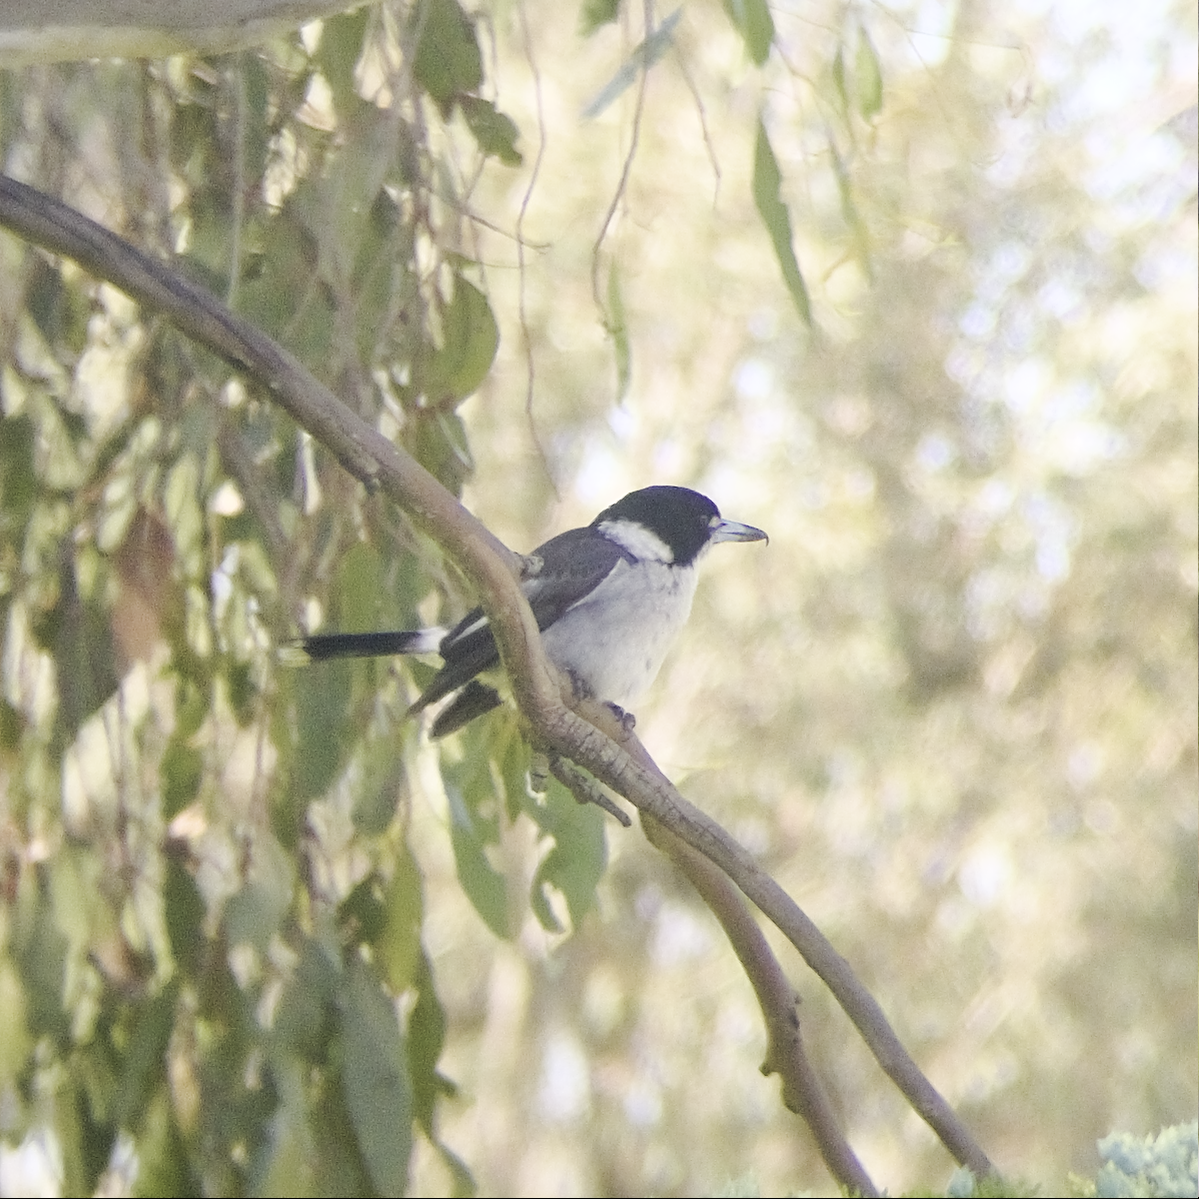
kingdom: Animalia
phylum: Chordata
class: Aves
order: Passeriformes
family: Cracticidae
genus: Cracticus
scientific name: Cracticus torquatus
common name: Grey butcherbird
